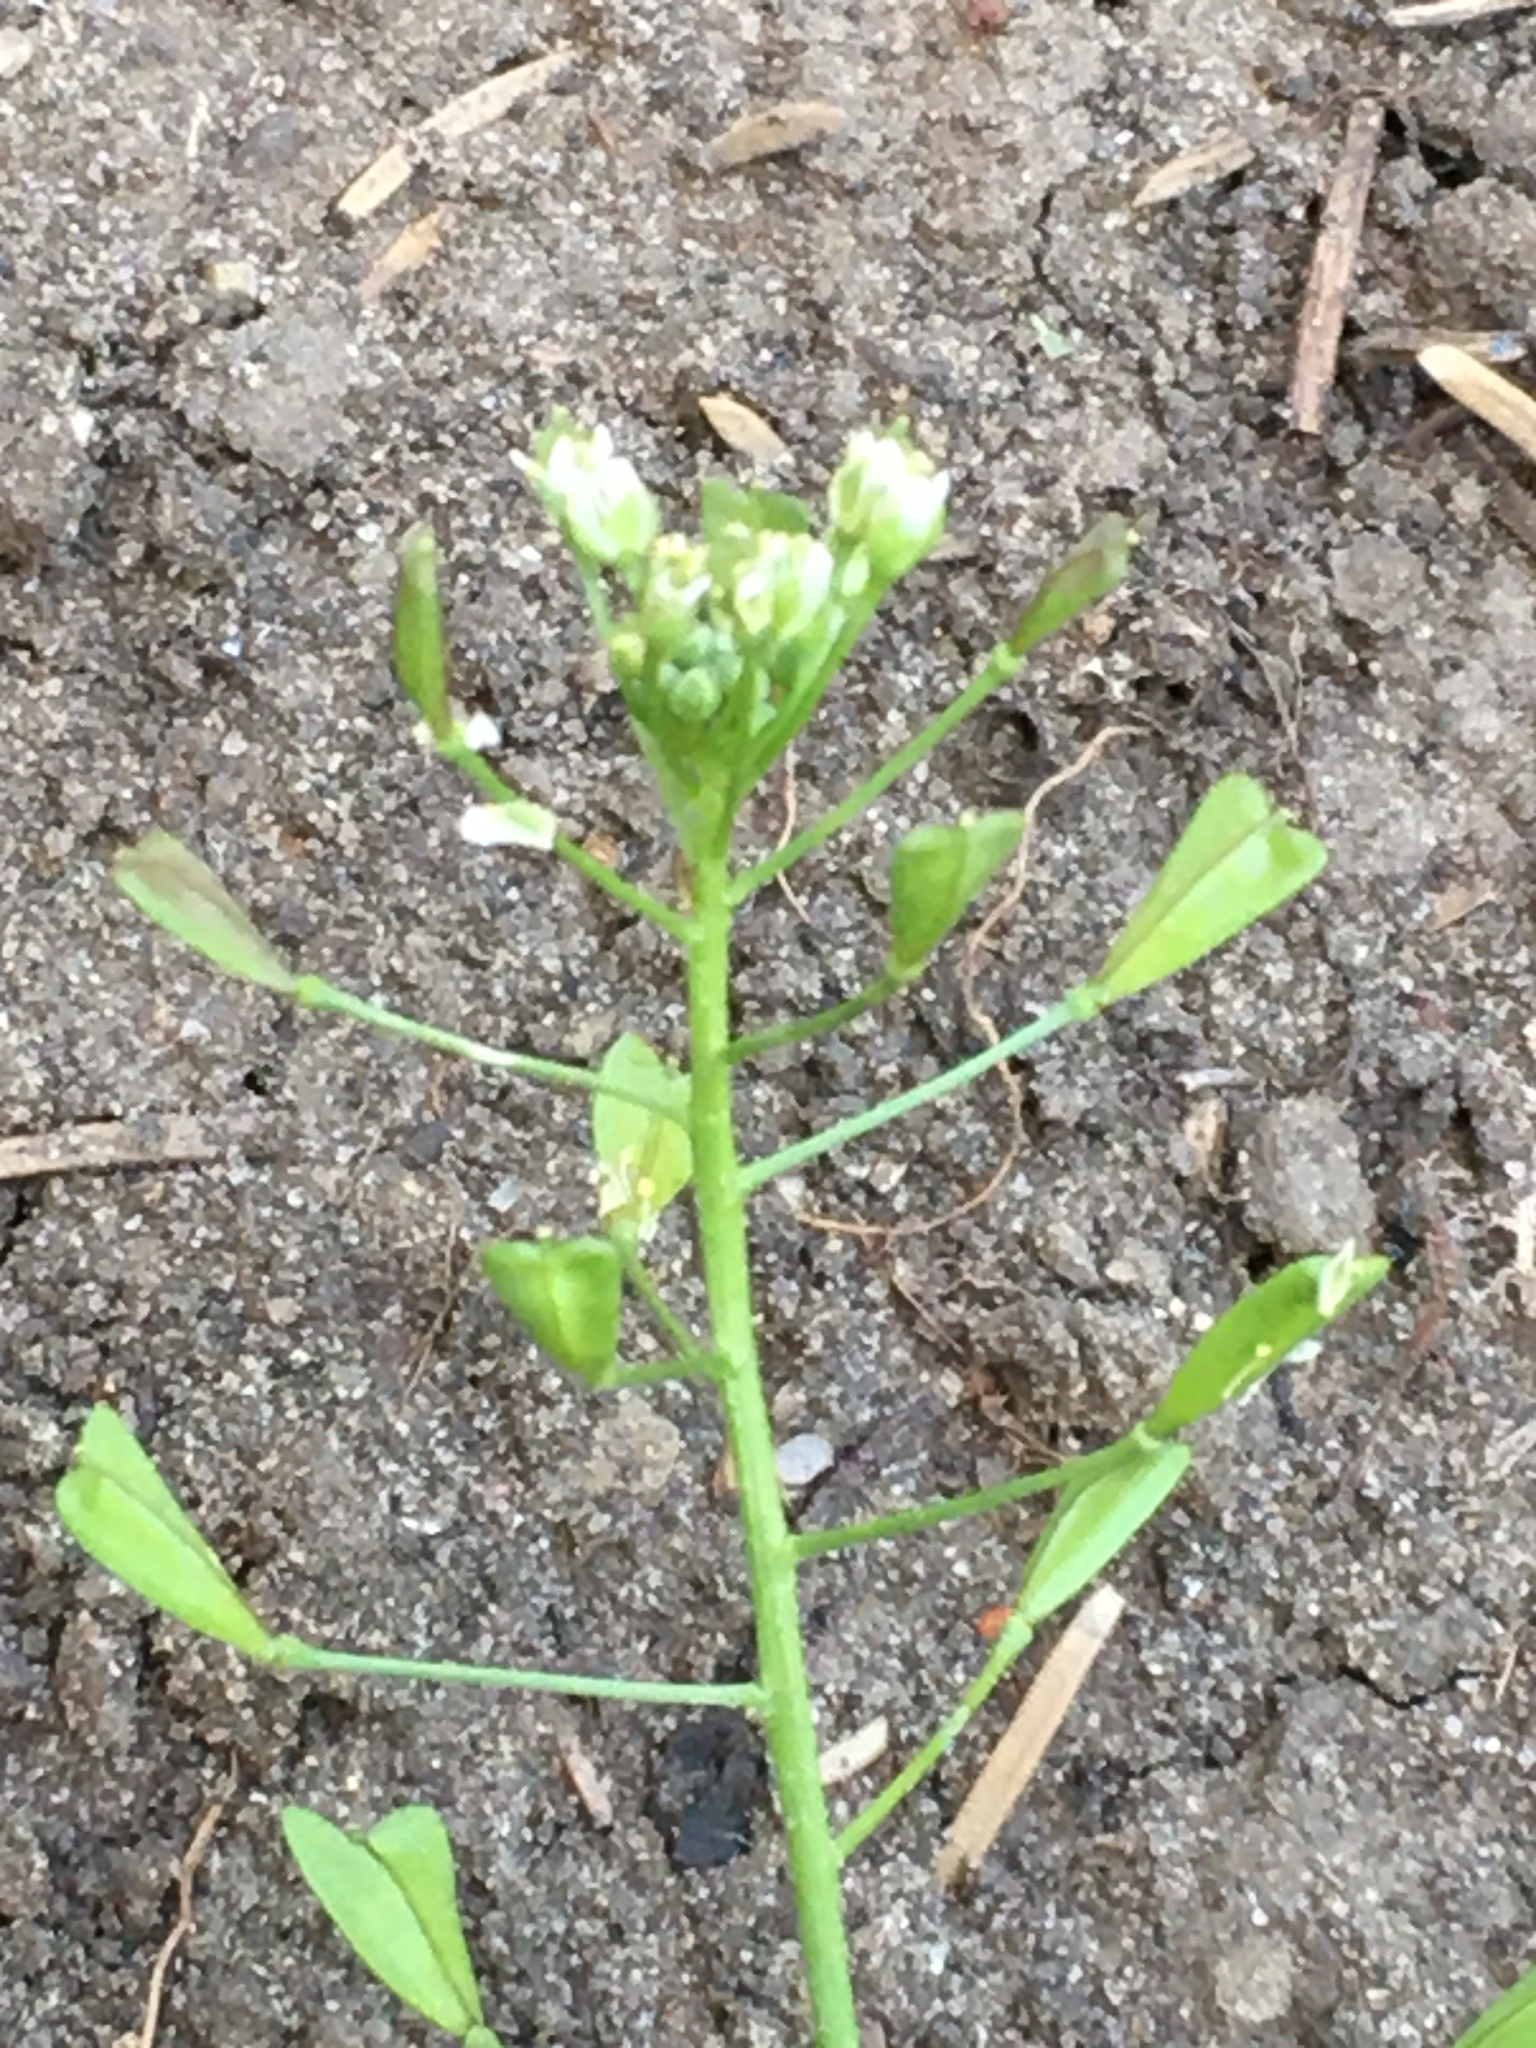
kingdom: Plantae
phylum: Tracheophyta
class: Magnoliopsida
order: Brassicales
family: Brassicaceae
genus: Capsella
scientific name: Capsella bursa-pastoris
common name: Shepherd's purse
